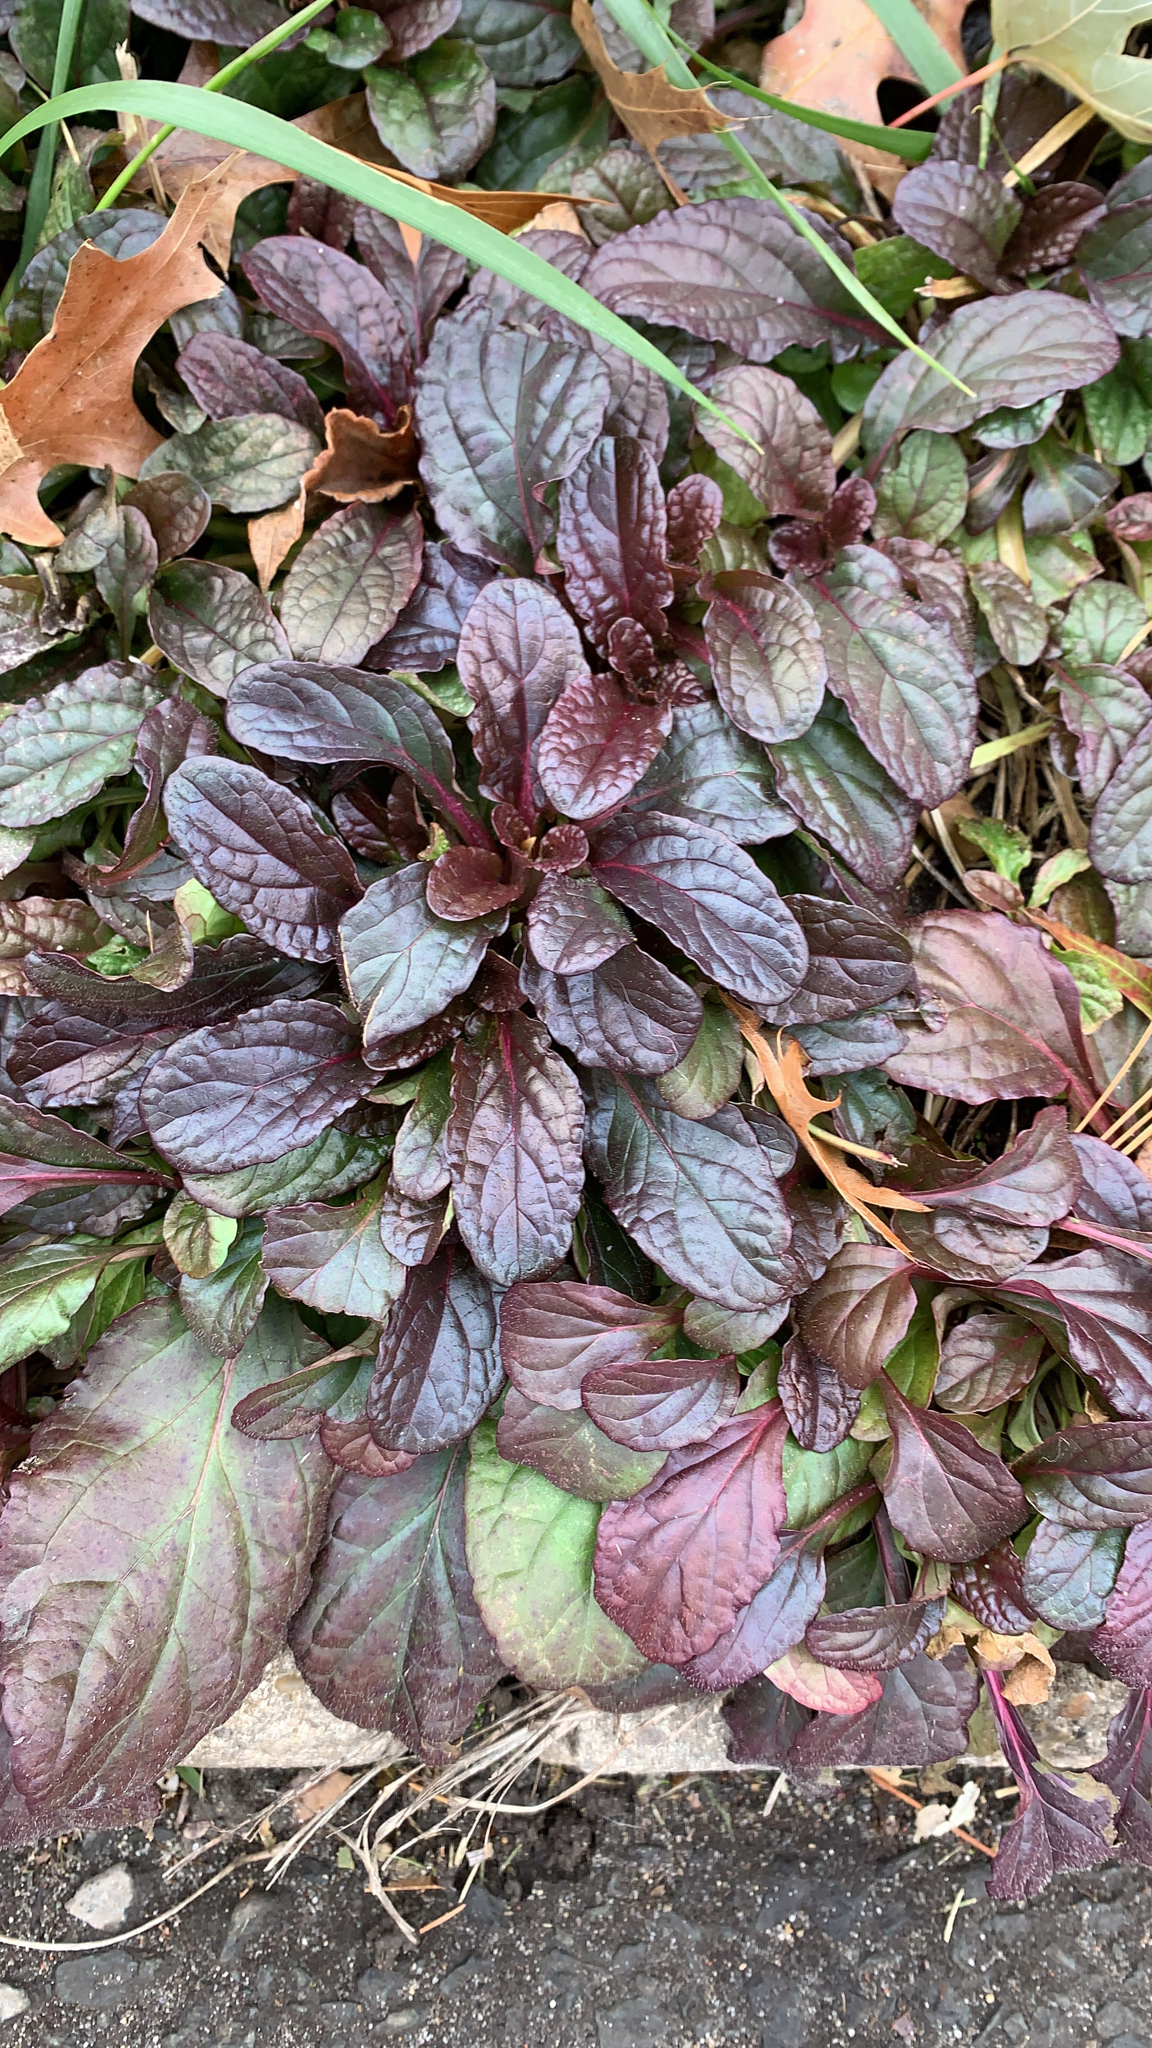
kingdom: Plantae
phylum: Tracheophyta
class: Magnoliopsida
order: Lamiales
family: Lamiaceae
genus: Ajuga
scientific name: Ajuga reptans
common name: Bugle
